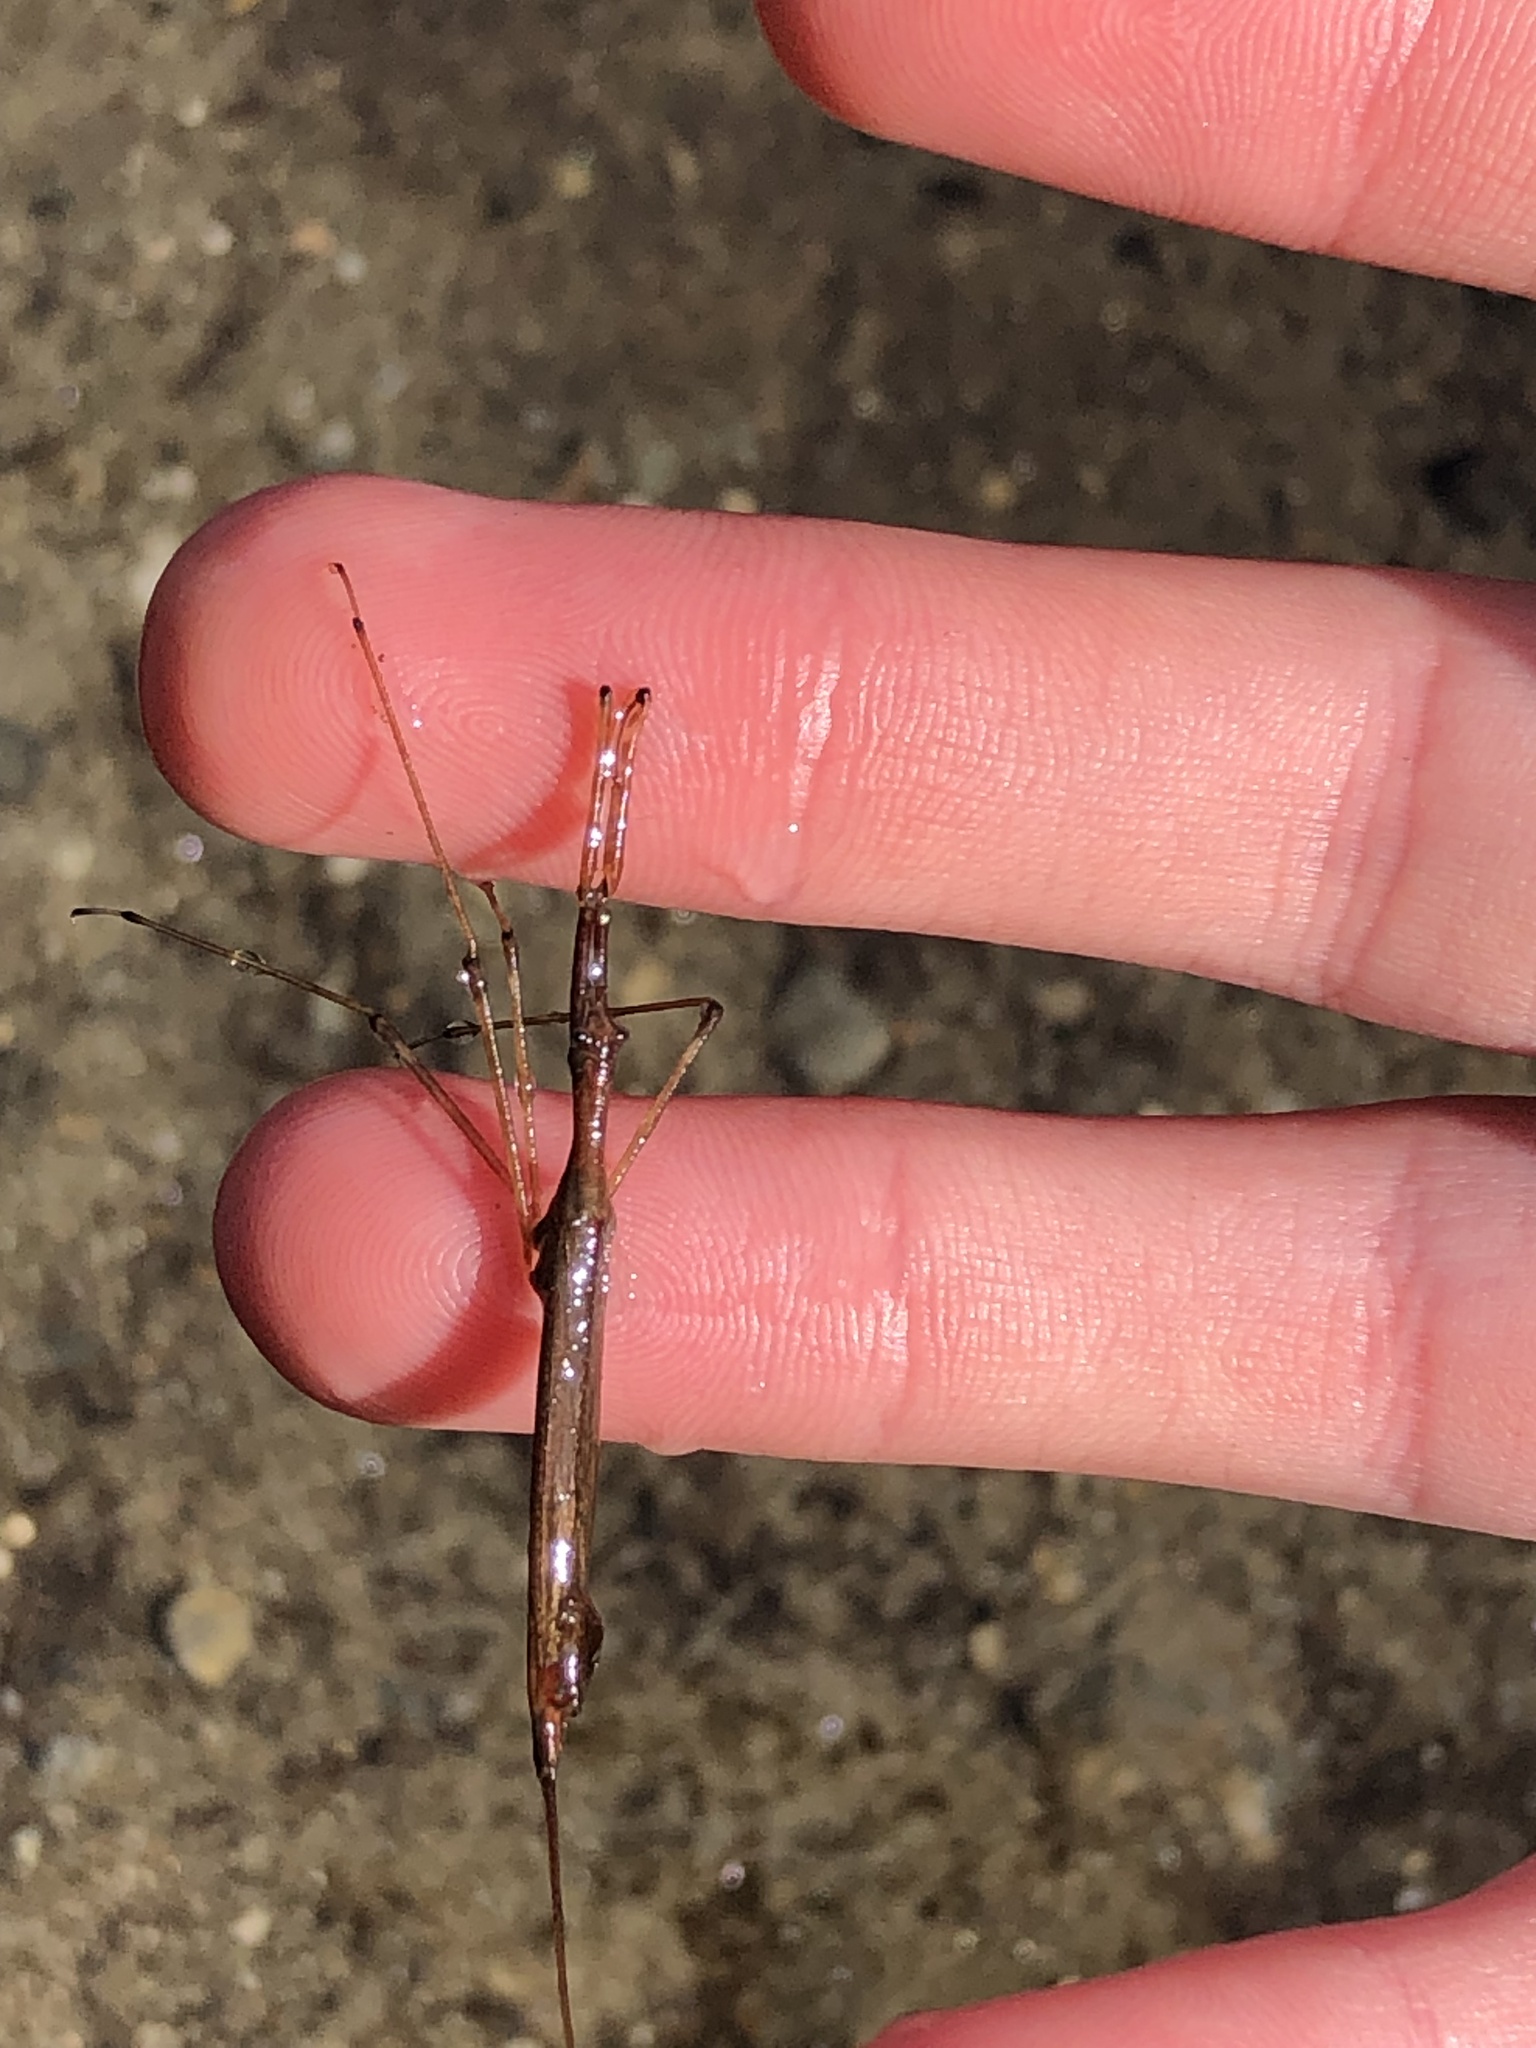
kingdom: Animalia
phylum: Arthropoda
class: Insecta
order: Hemiptera
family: Nepidae
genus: Ranatra
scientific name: Ranatra kirkaldyi
